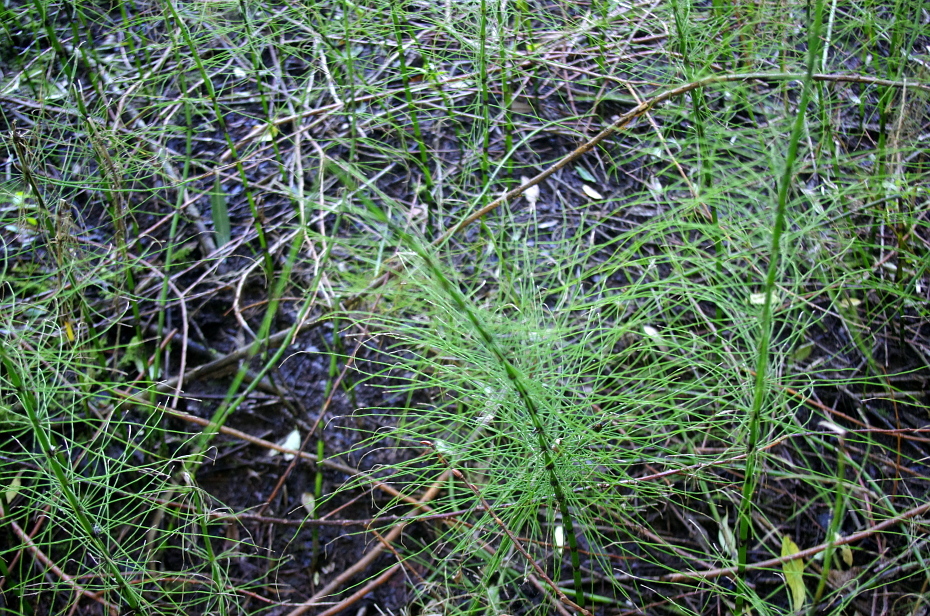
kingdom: Plantae
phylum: Tracheophyta
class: Polypodiopsida
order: Equisetales
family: Equisetaceae
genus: Equisetum
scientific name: Equisetum fluviatile
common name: Water horsetail
